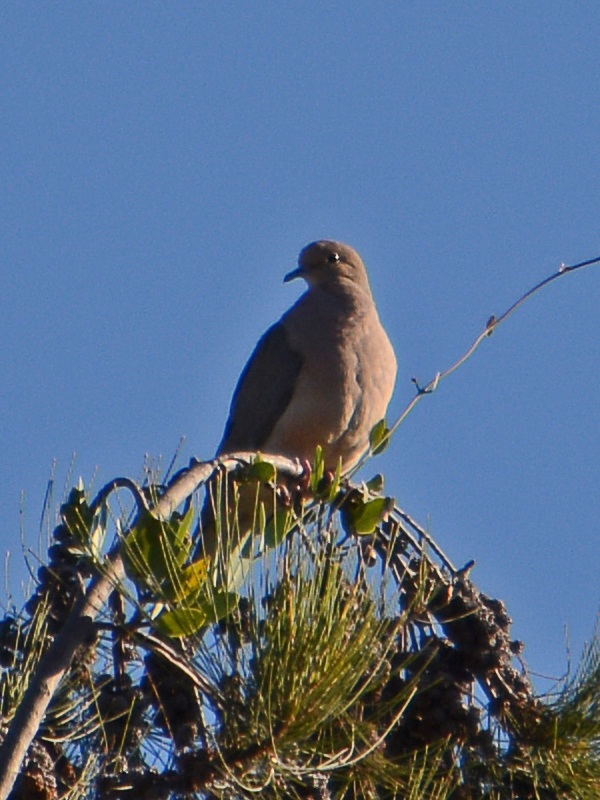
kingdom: Animalia
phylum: Chordata
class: Aves
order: Columbiformes
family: Columbidae
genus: Zenaida
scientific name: Zenaida macroura
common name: Mourning dove
